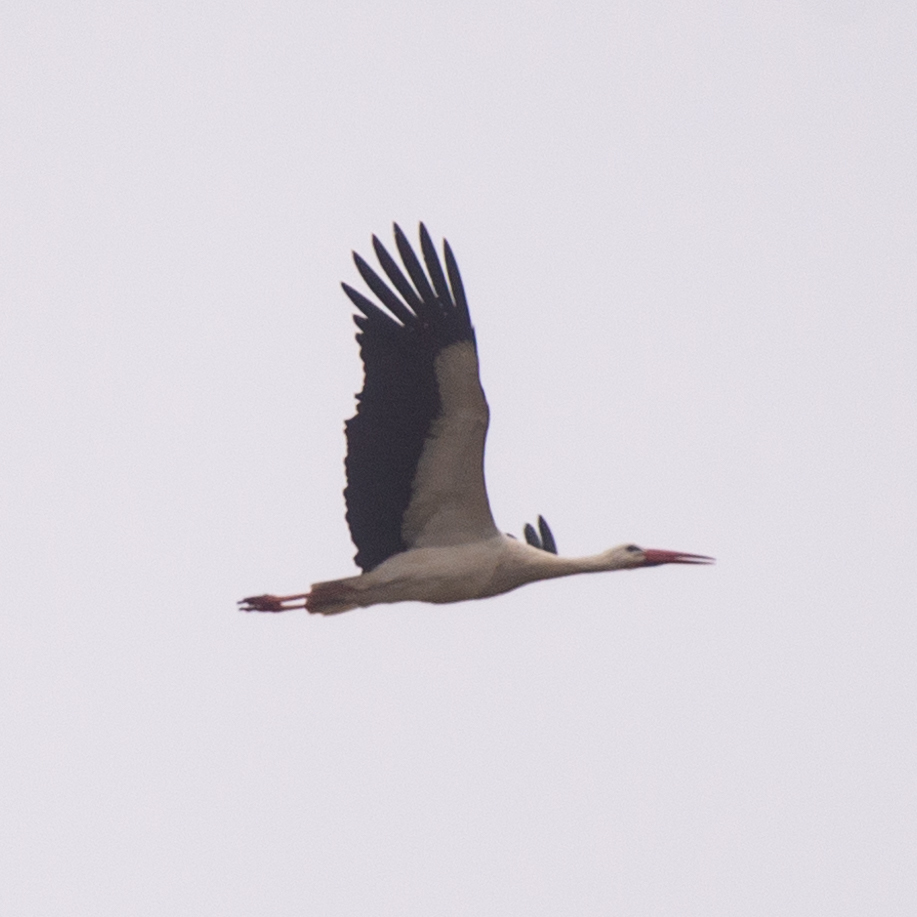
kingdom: Animalia
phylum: Chordata
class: Aves
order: Ciconiiformes
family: Ciconiidae
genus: Ciconia
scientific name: Ciconia ciconia
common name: White stork
